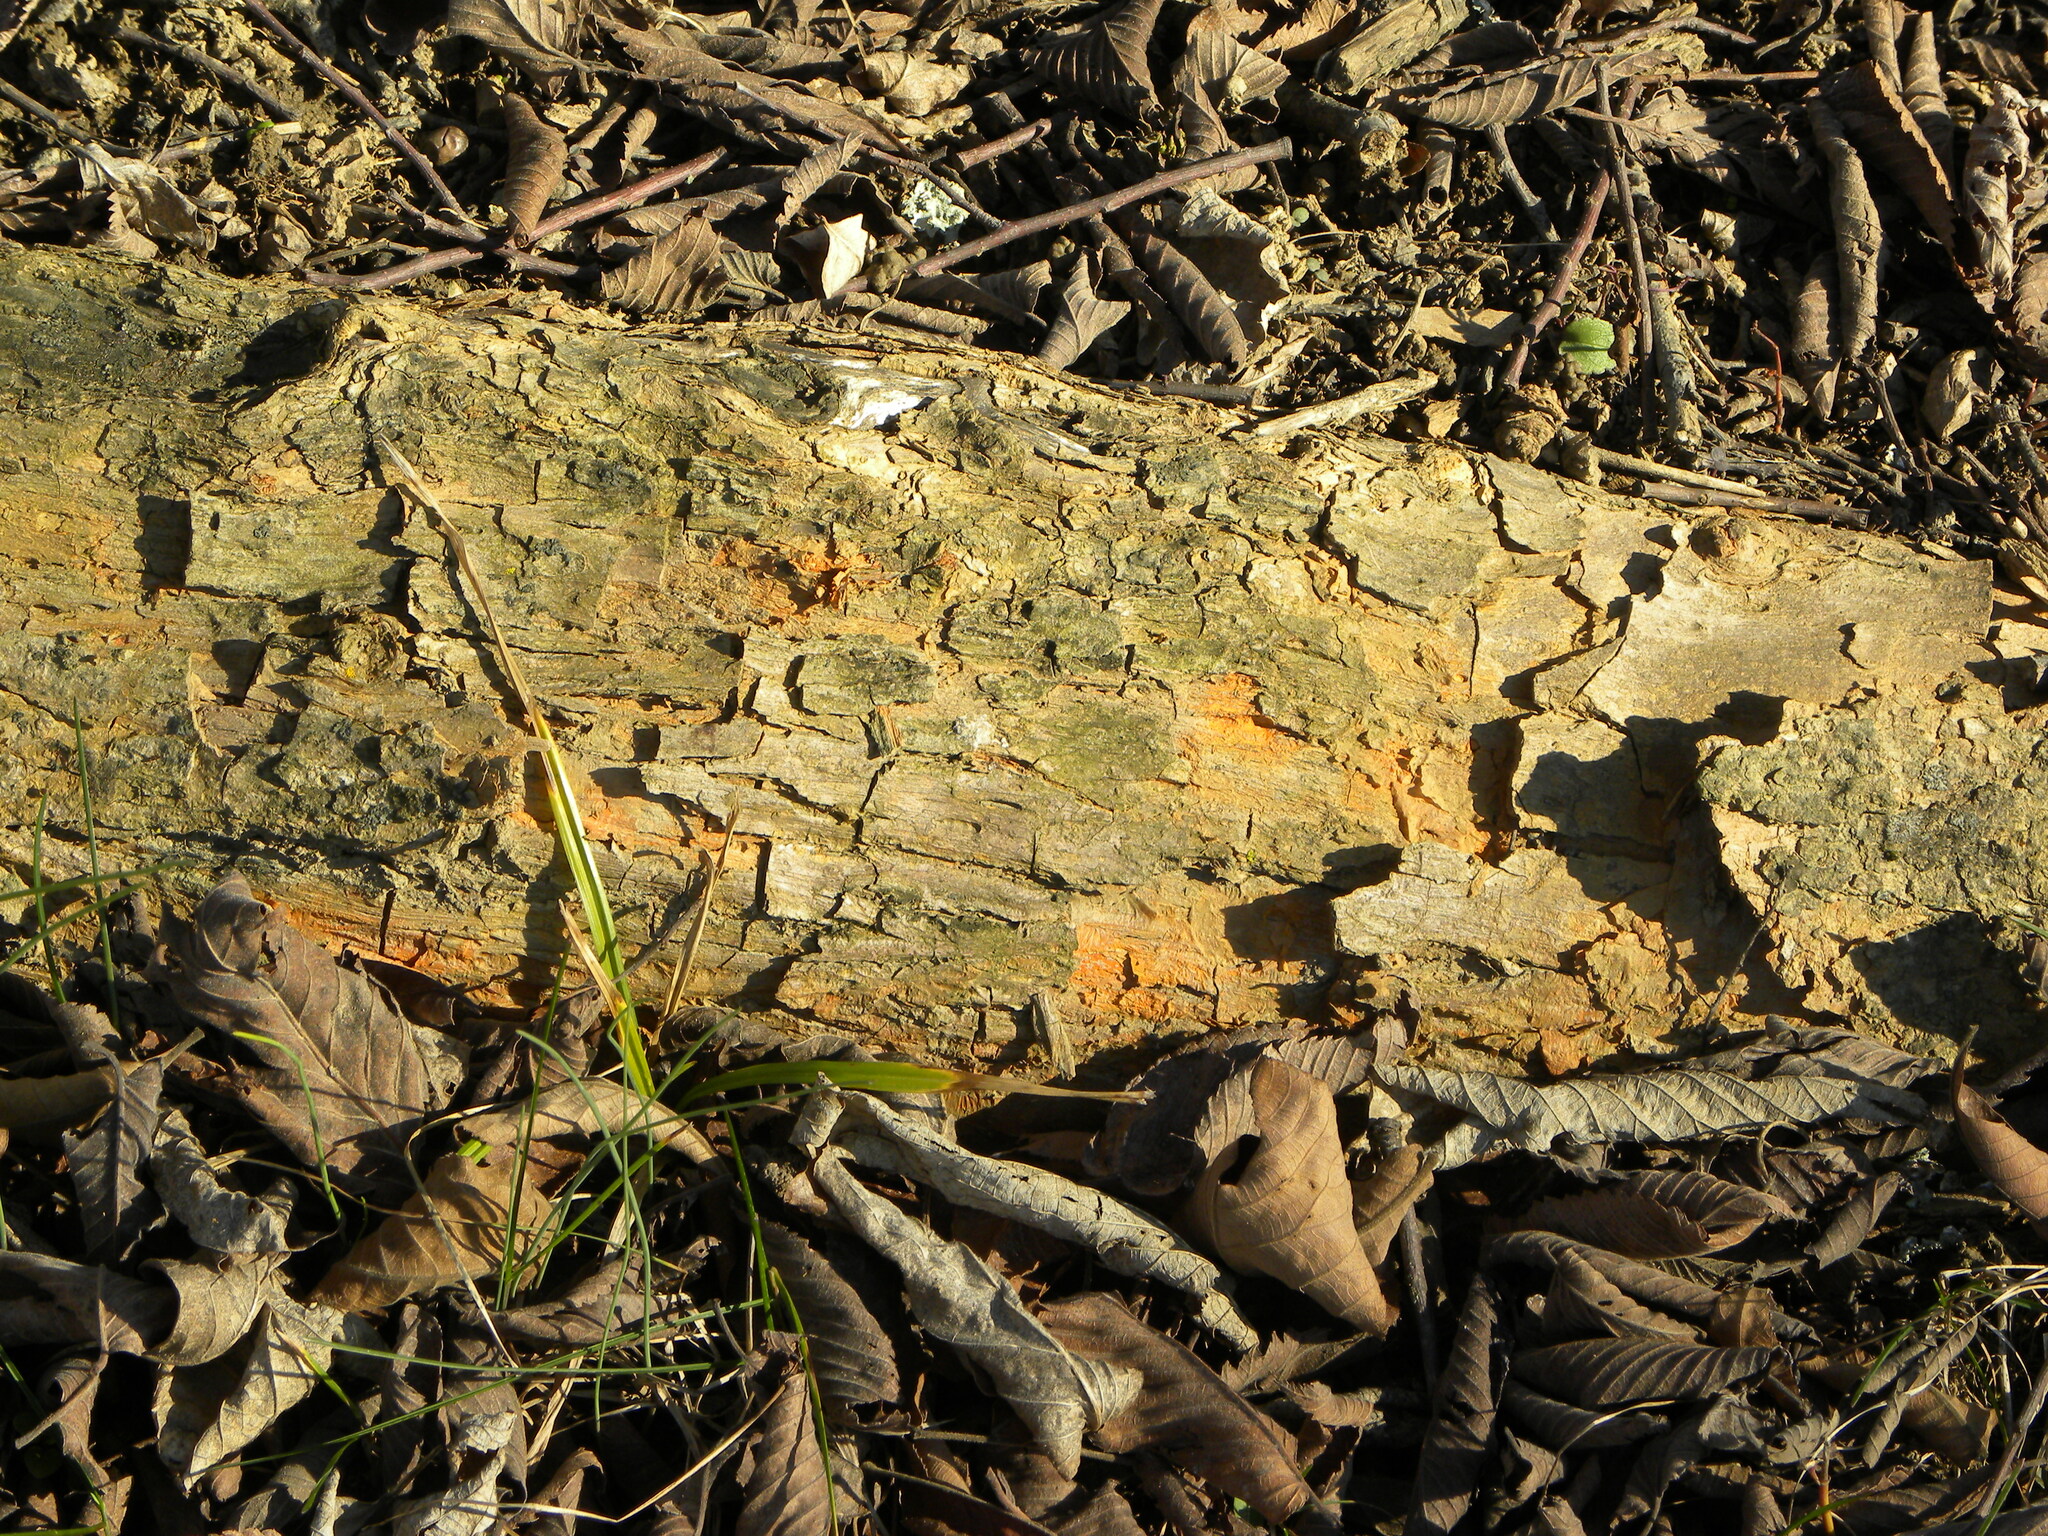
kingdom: Plantae
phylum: Tracheophyta
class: Magnoliopsida
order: Rosales
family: Moraceae
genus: Maclura
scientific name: Maclura pomifera
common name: Osage-orange
